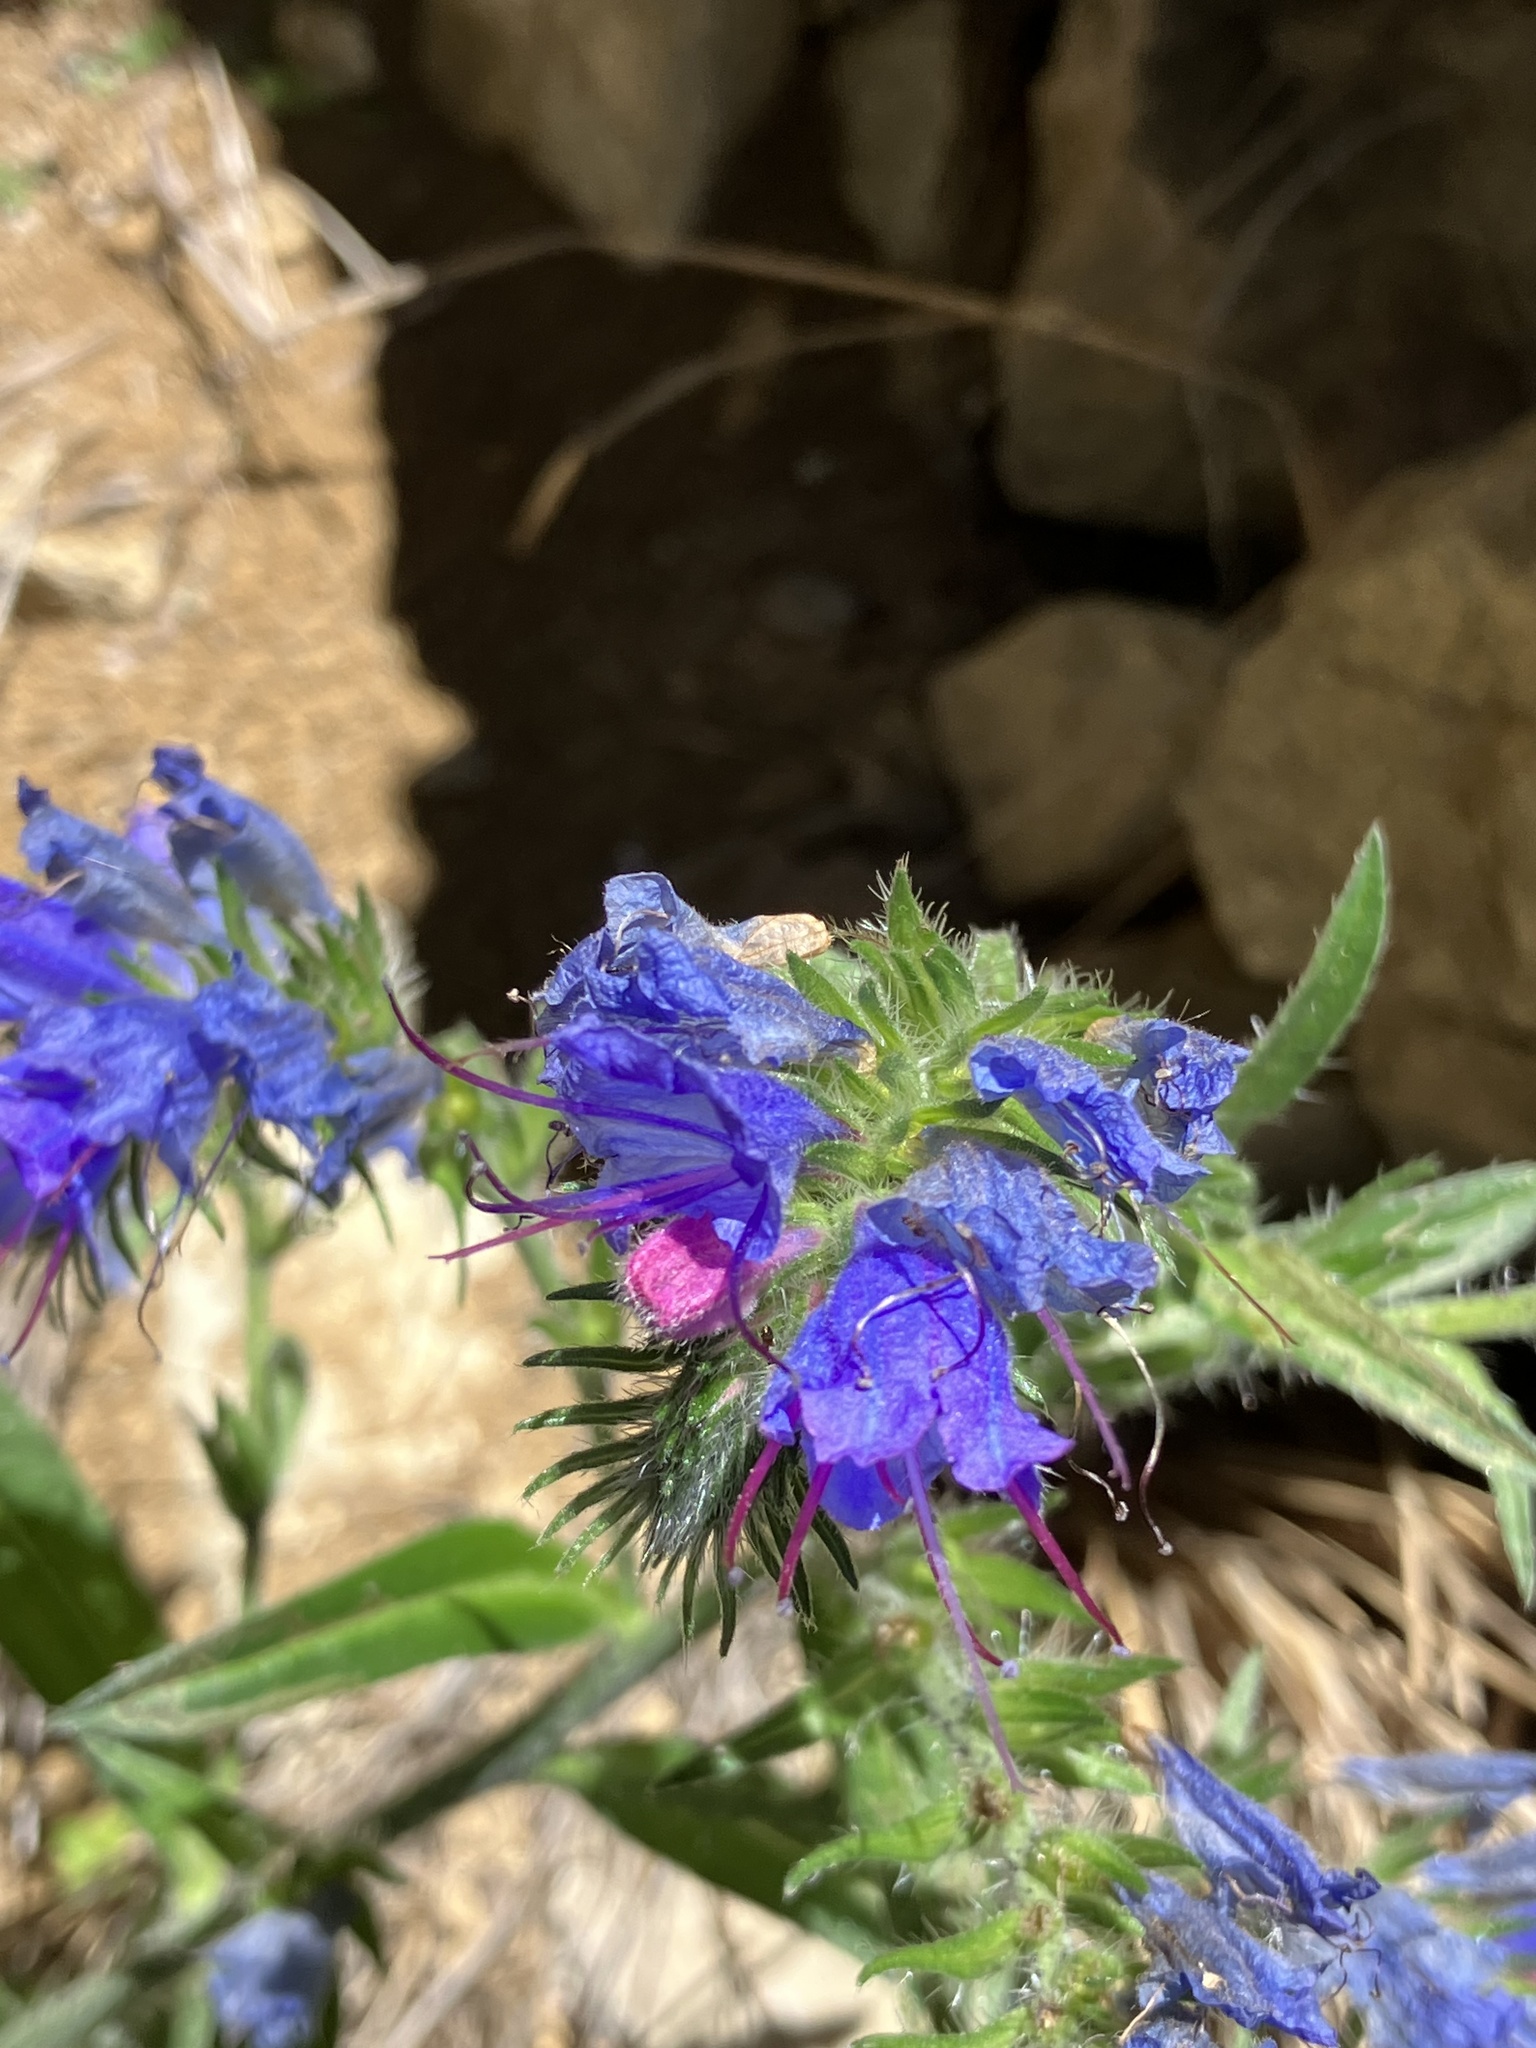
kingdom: Plantae
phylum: Tracheophyta
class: Magnoliopsida
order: Boraginales
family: Boraginaceae
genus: Echium
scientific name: Echium vulgare
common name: Common viper's bugloss
